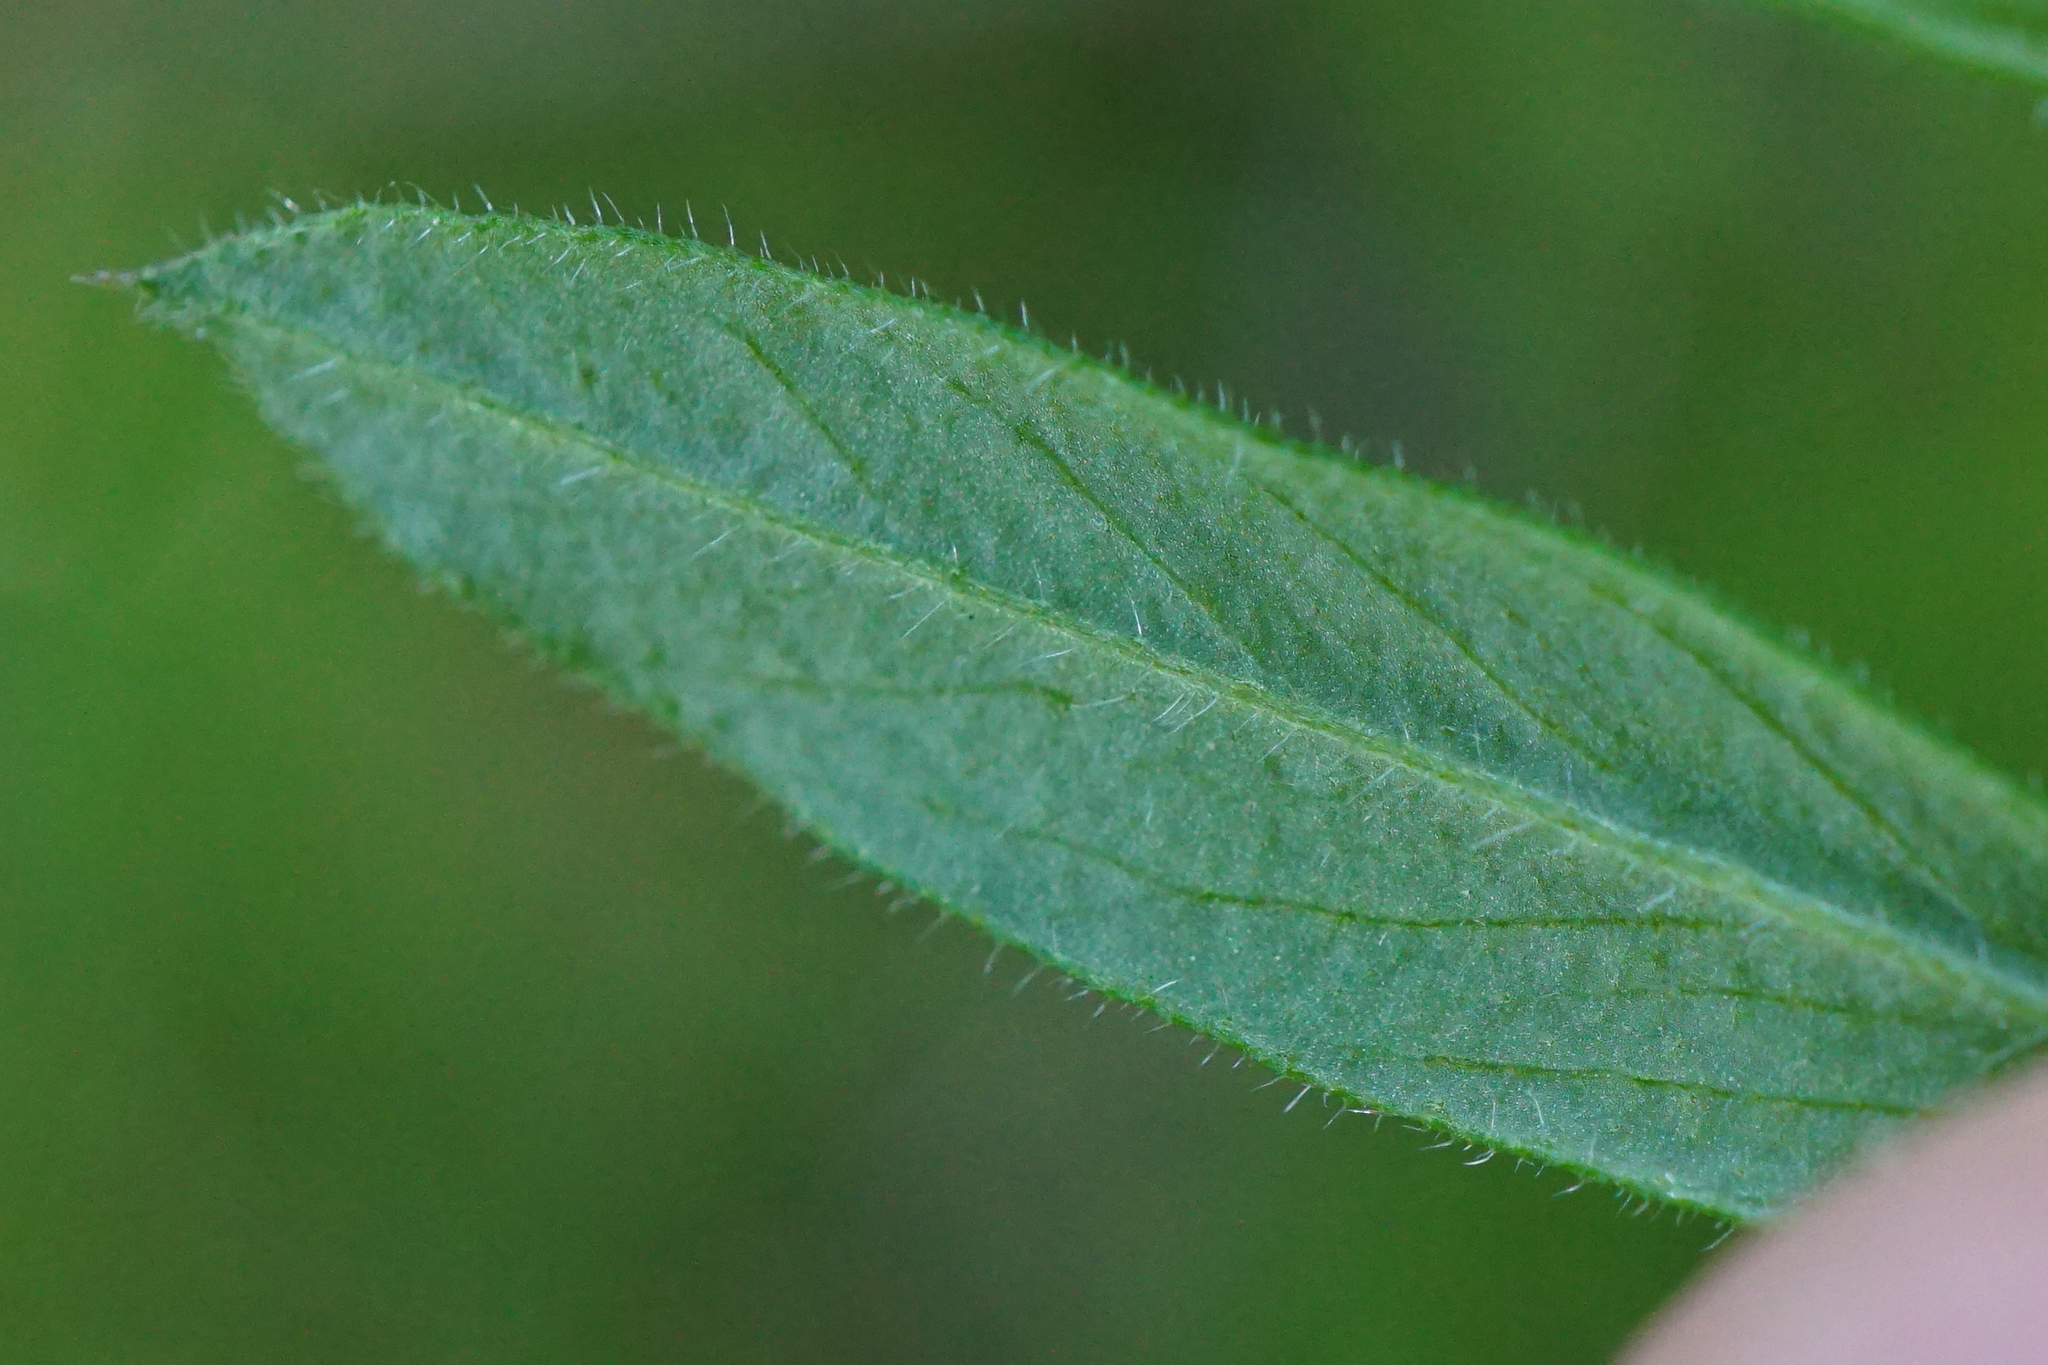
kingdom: Plantae
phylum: Tracheophyta
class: Magnoliopsida
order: Fabales
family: Fabaceae
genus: Vicia
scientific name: Vicia sativa
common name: Garden vetch
